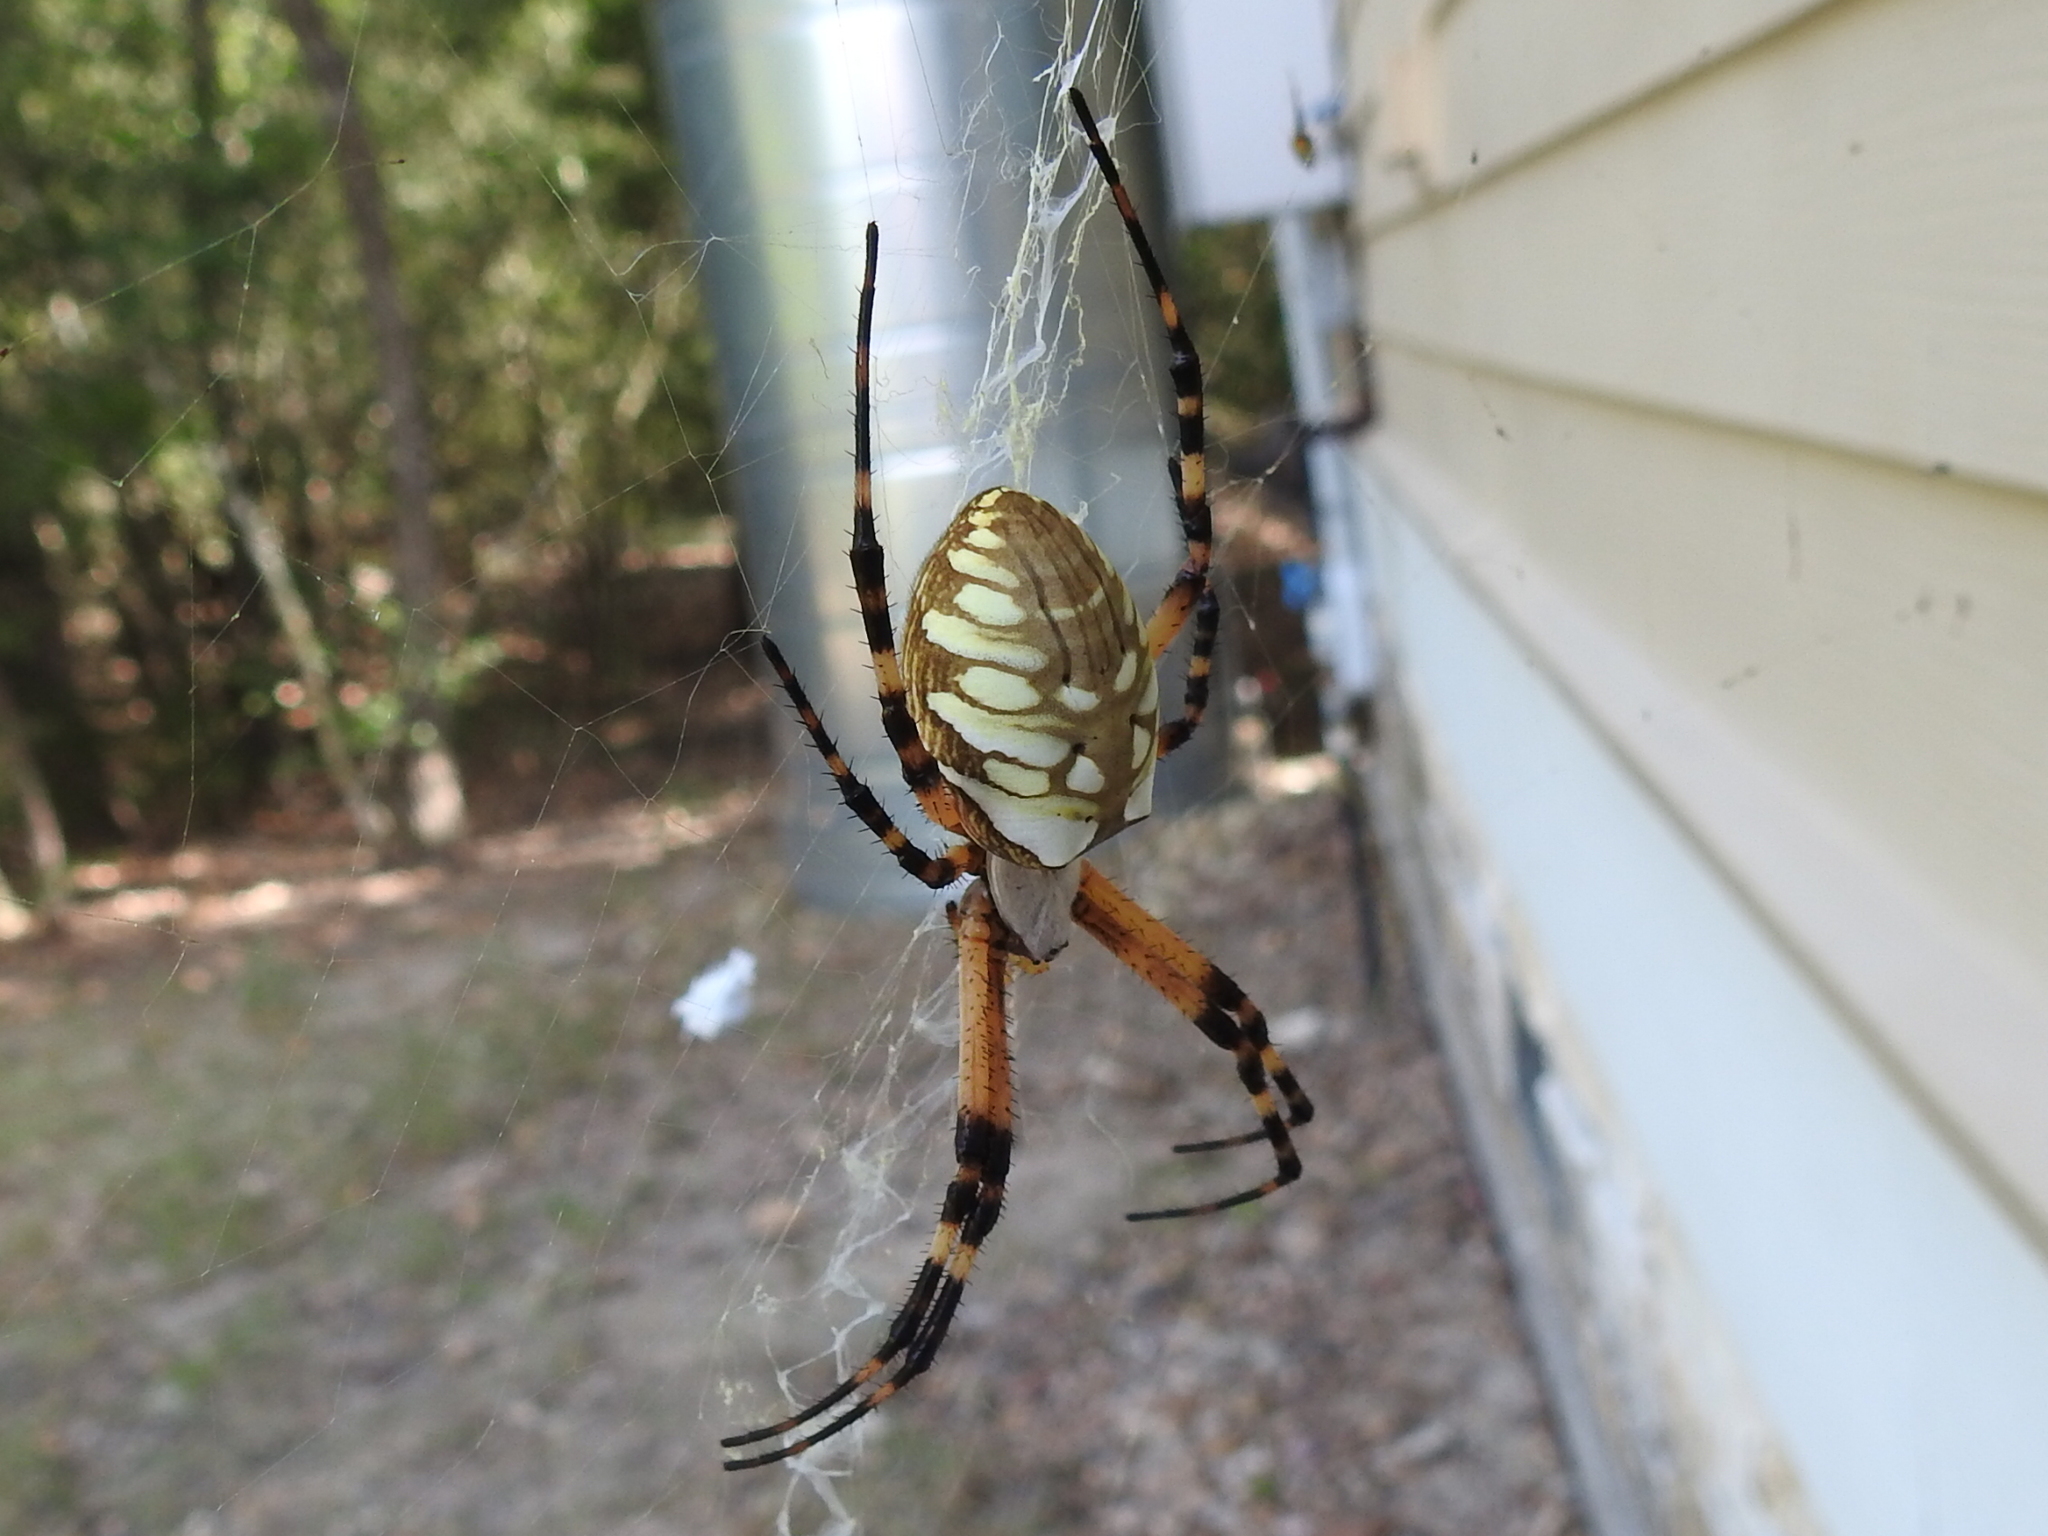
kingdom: Animalia
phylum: Arthropoda
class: Arachnida
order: Araneae
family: Araneidae
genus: Argiope
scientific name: Argiope aurantia
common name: Orb weavers
